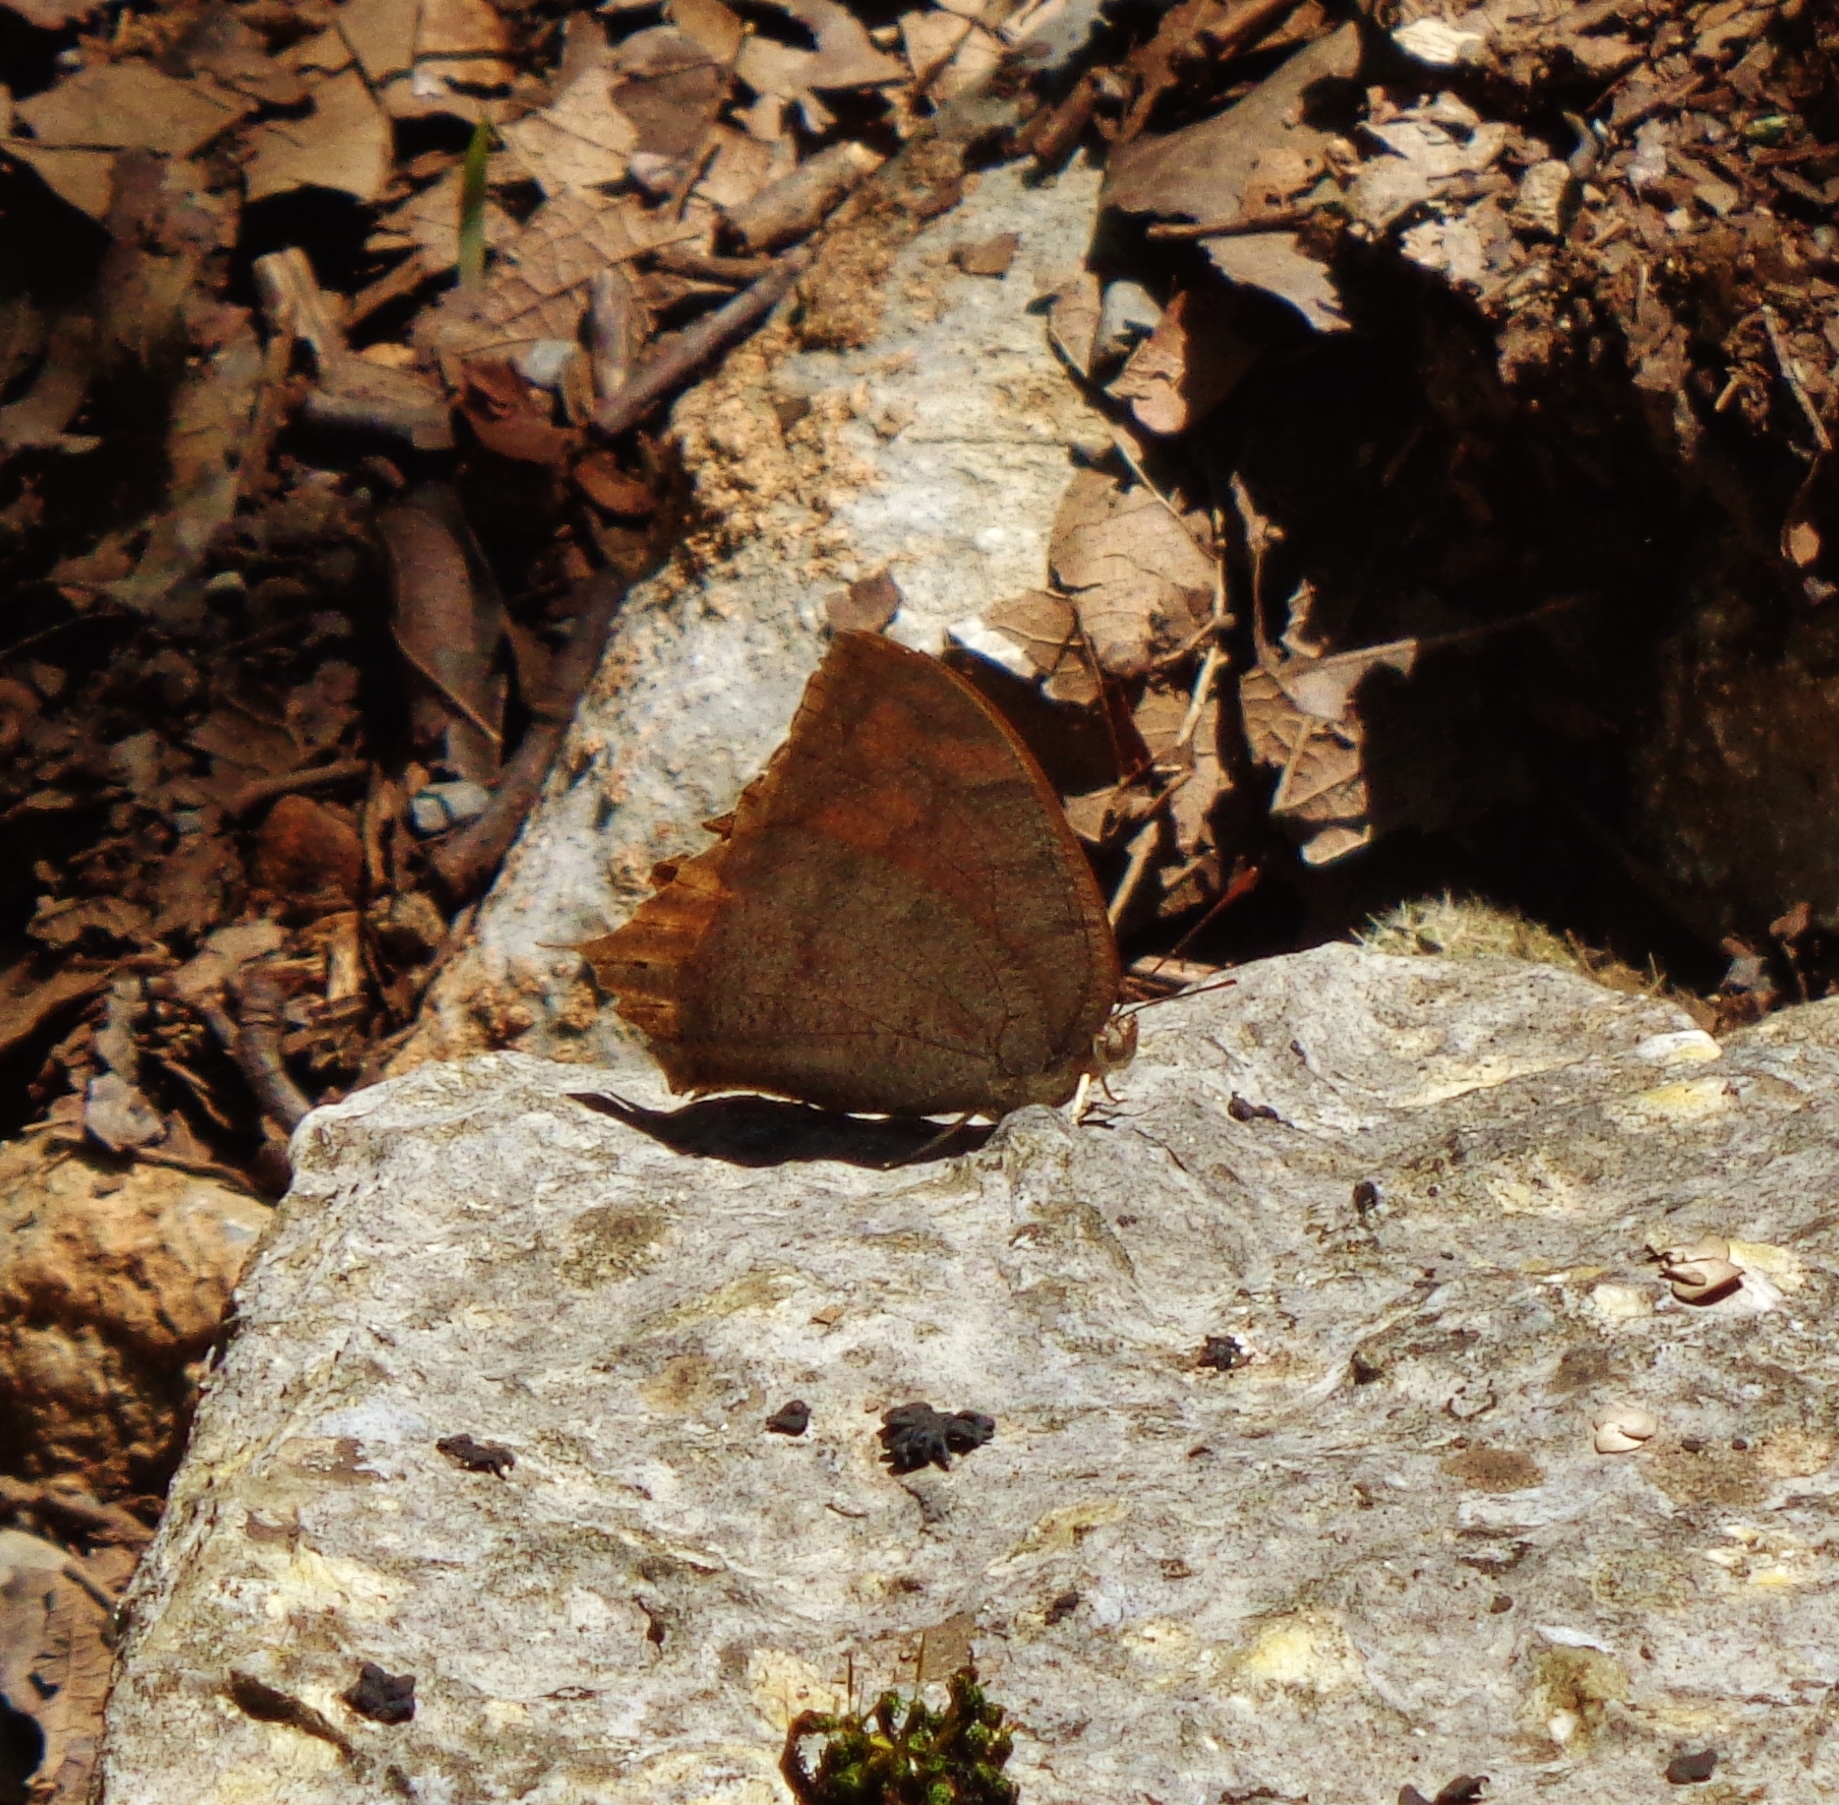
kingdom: Animalia
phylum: Arthropoda
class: Insecta
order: Lepidoptera
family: Nymphalidae
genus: Anaea
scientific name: Anaea aidea
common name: Tropical leafwing
